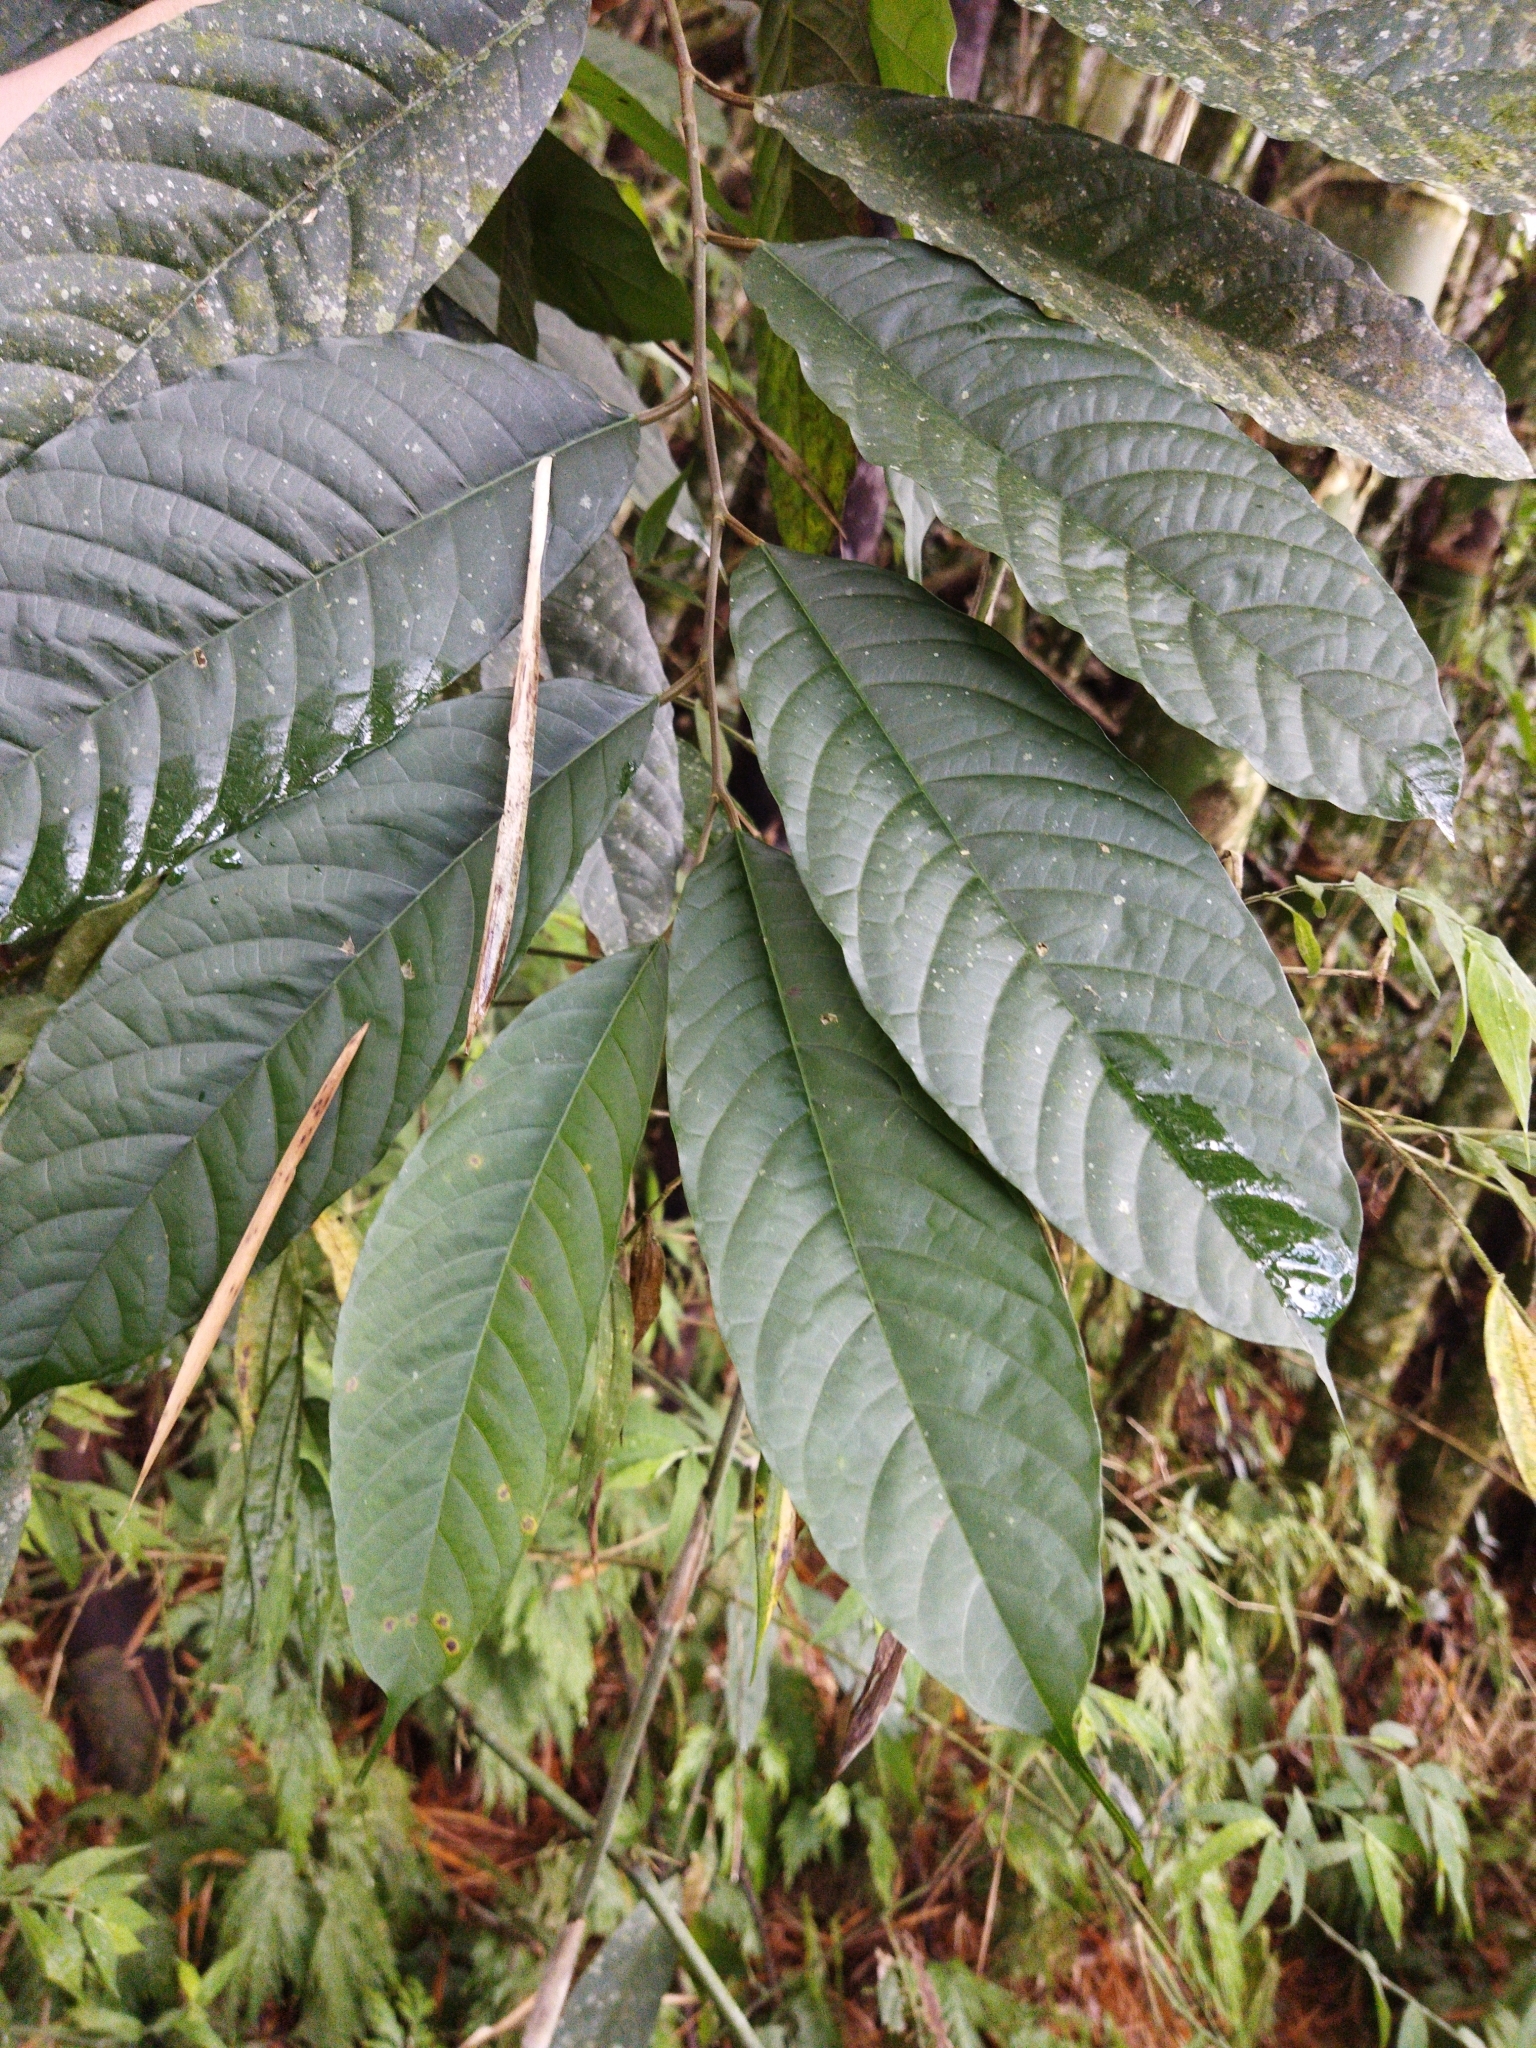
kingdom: Plantae
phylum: Tracheophyta
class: Magnoliopsida
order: Rosales
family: Moraceae
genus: Clarisia
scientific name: Clarisia biflora
